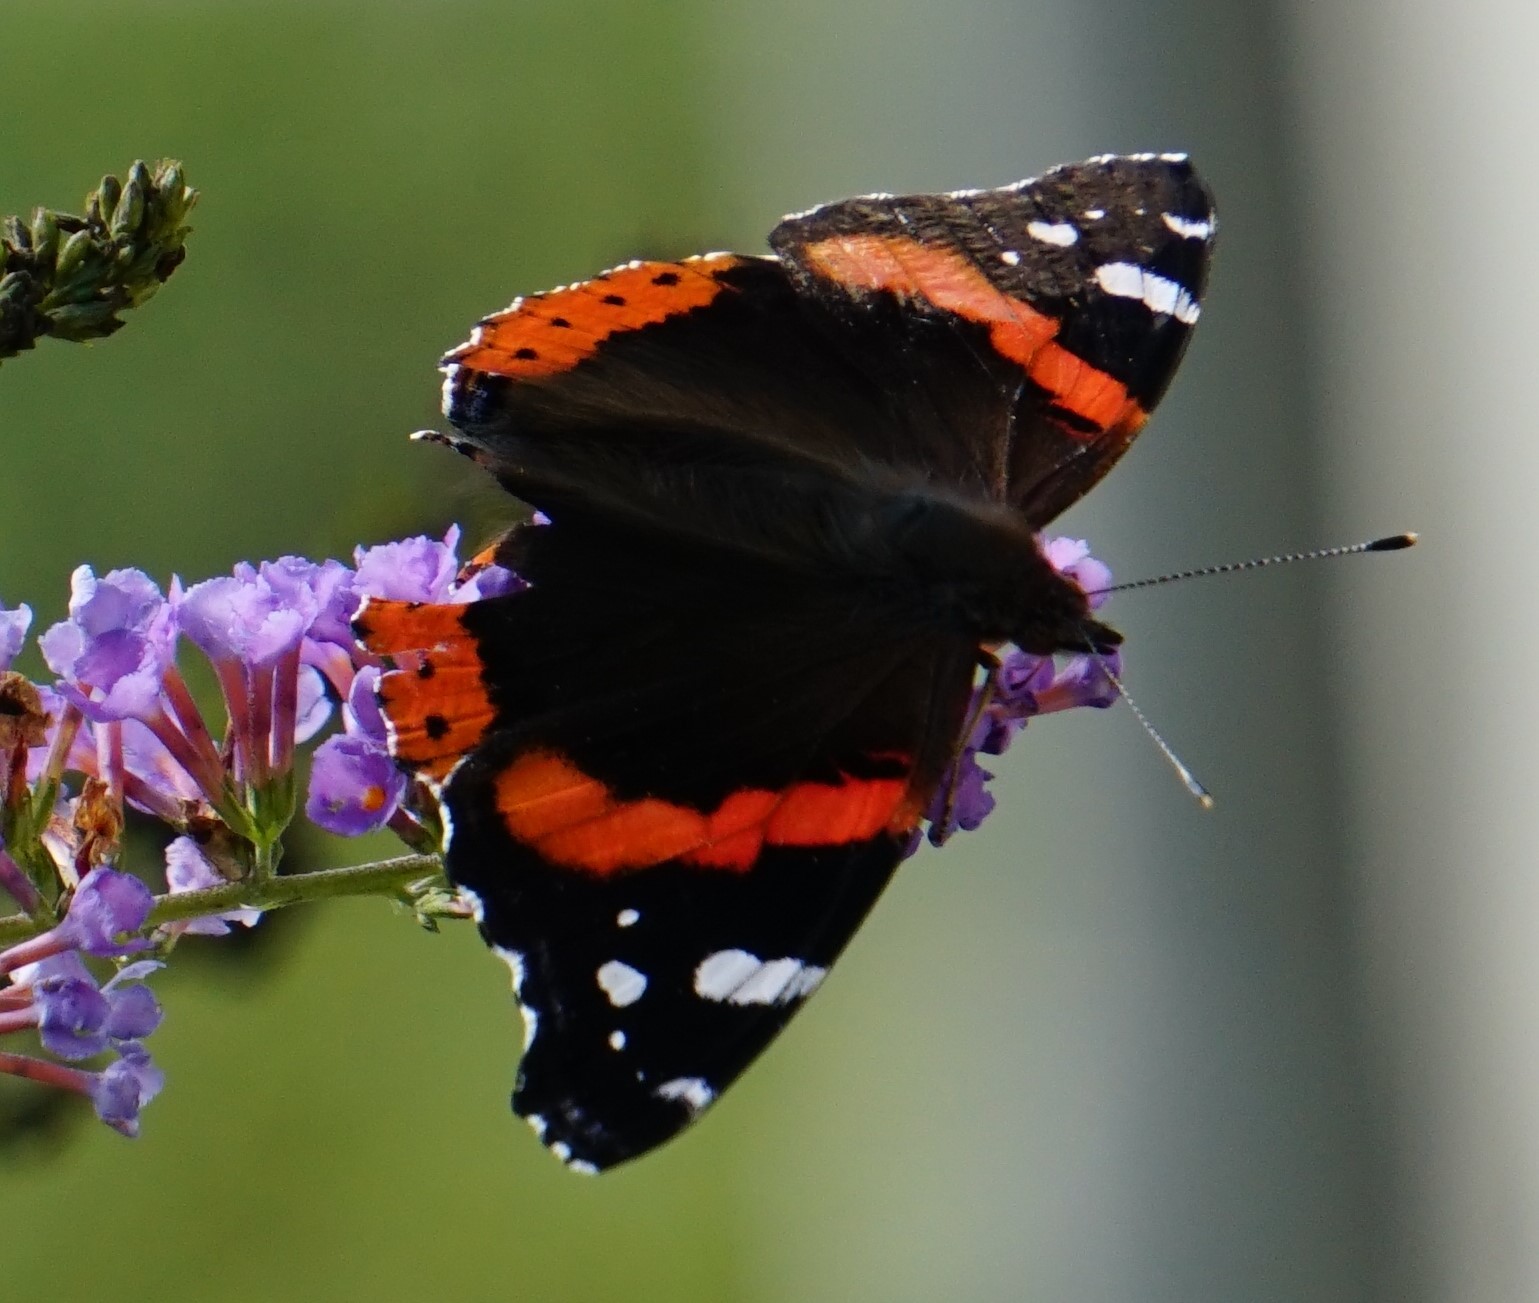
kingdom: Animalia
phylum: Arthropoda
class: Insecta
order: Lepidoptera
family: Nymphalidae
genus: Vanessa
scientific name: Vanessa atalanta
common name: Red admiral
